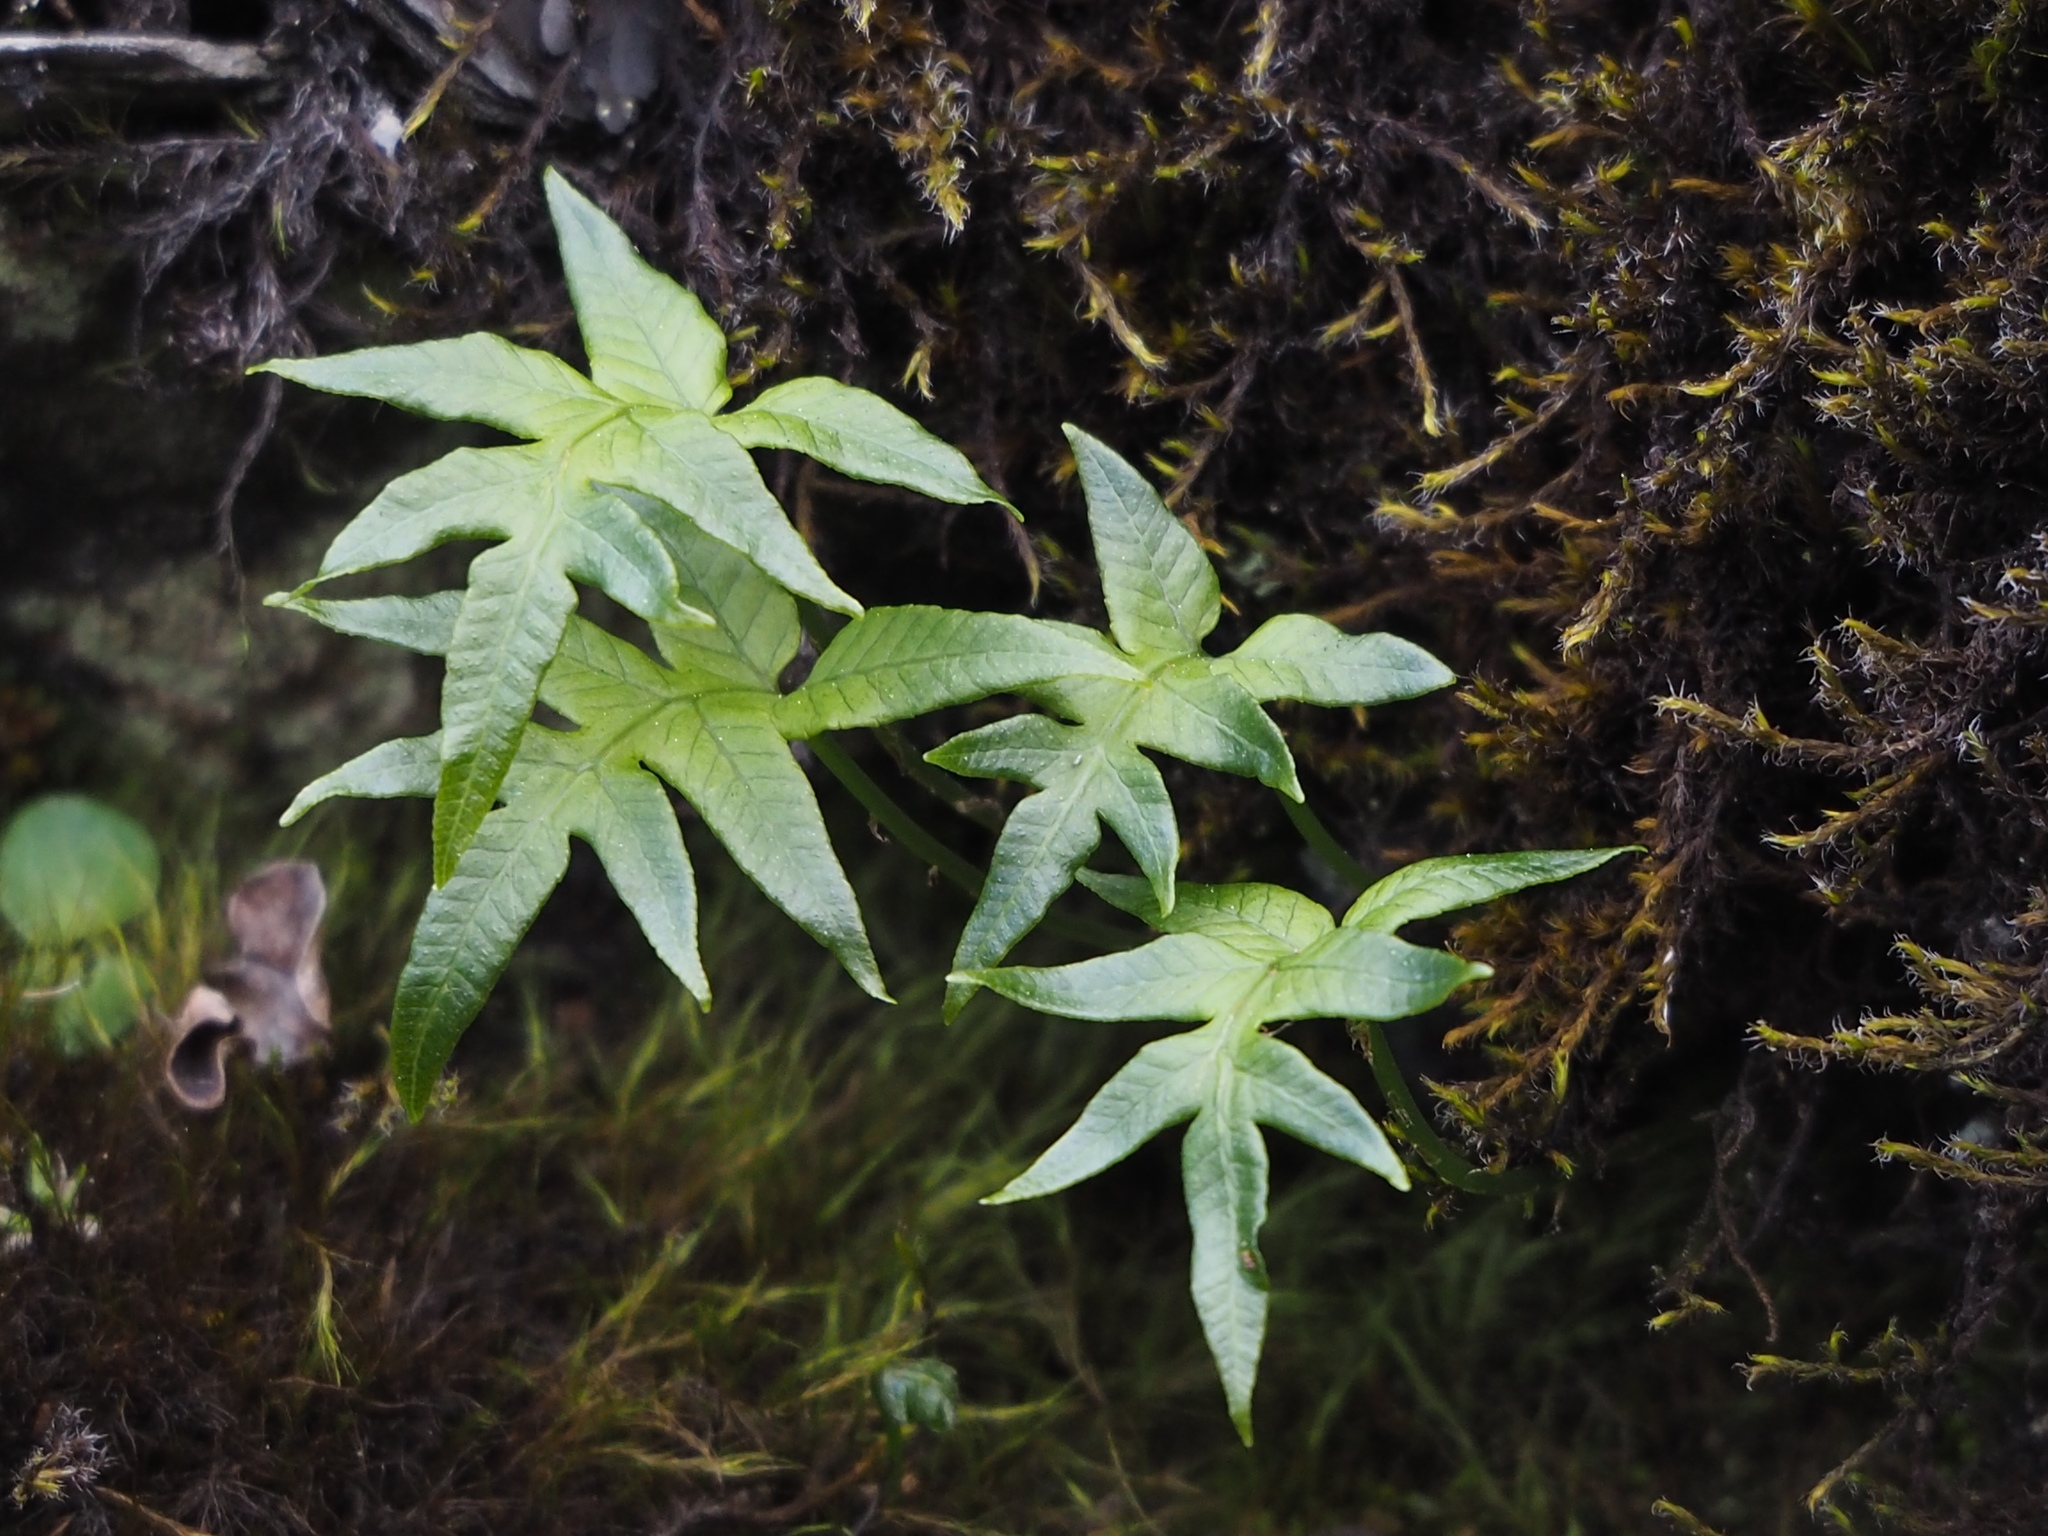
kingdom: Plantae
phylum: Tracheophyta
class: Polypodiopsida
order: Polypodiales
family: Polypodiaceae
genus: Selliguea
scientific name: Selliguea quasidivaricata
